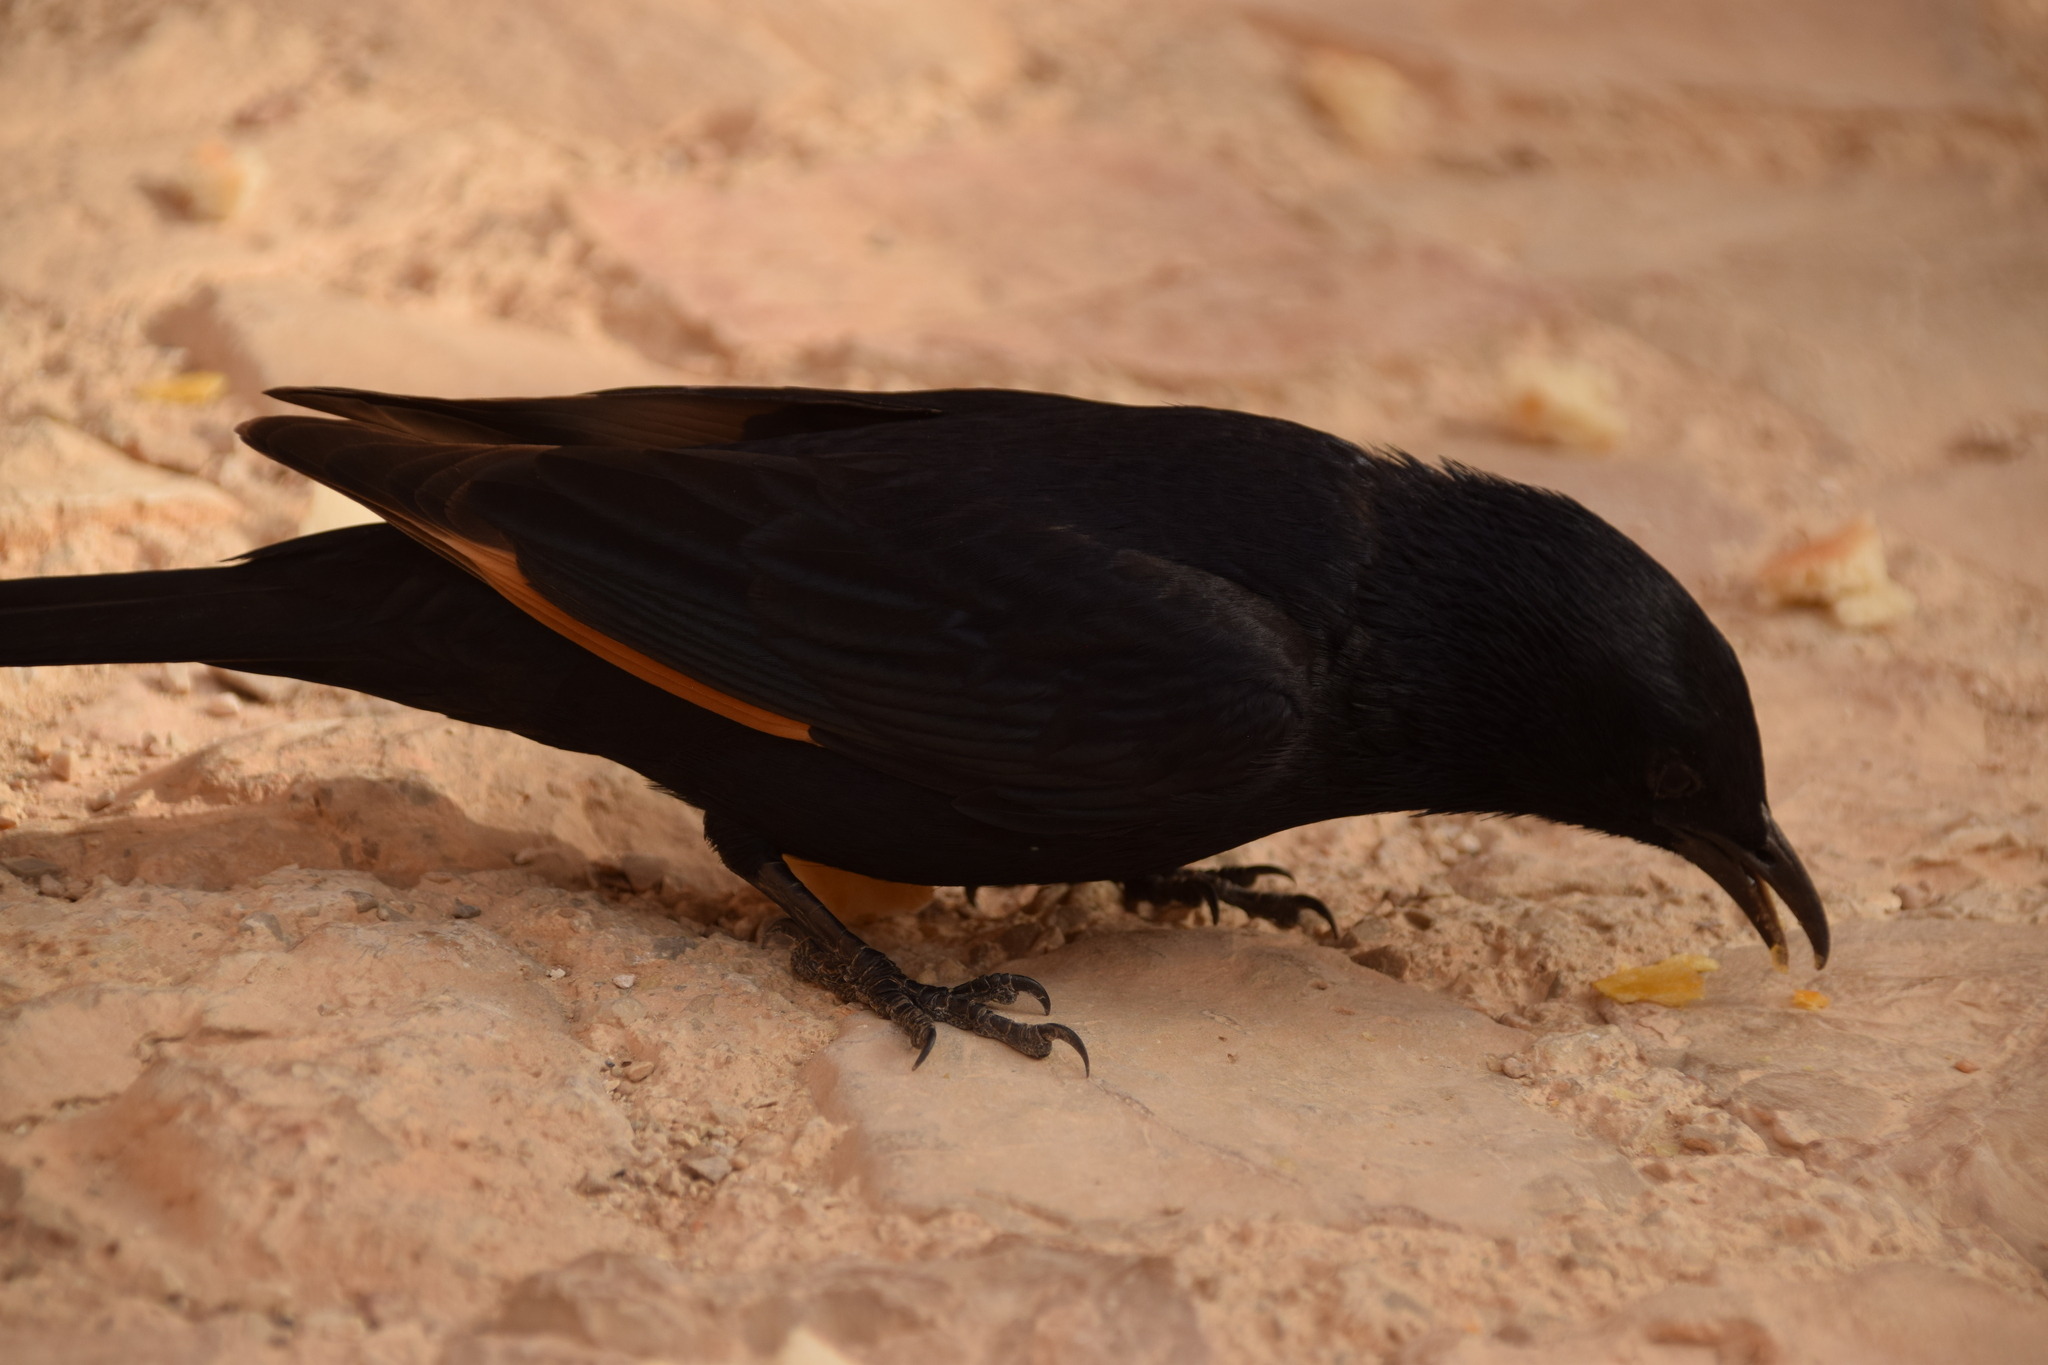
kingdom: Animalia
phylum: Chordata
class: Aves
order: Passeriformes
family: Sturnidae
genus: Onychognathus
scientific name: Onychognathus tristramii
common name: Tristram's starling
